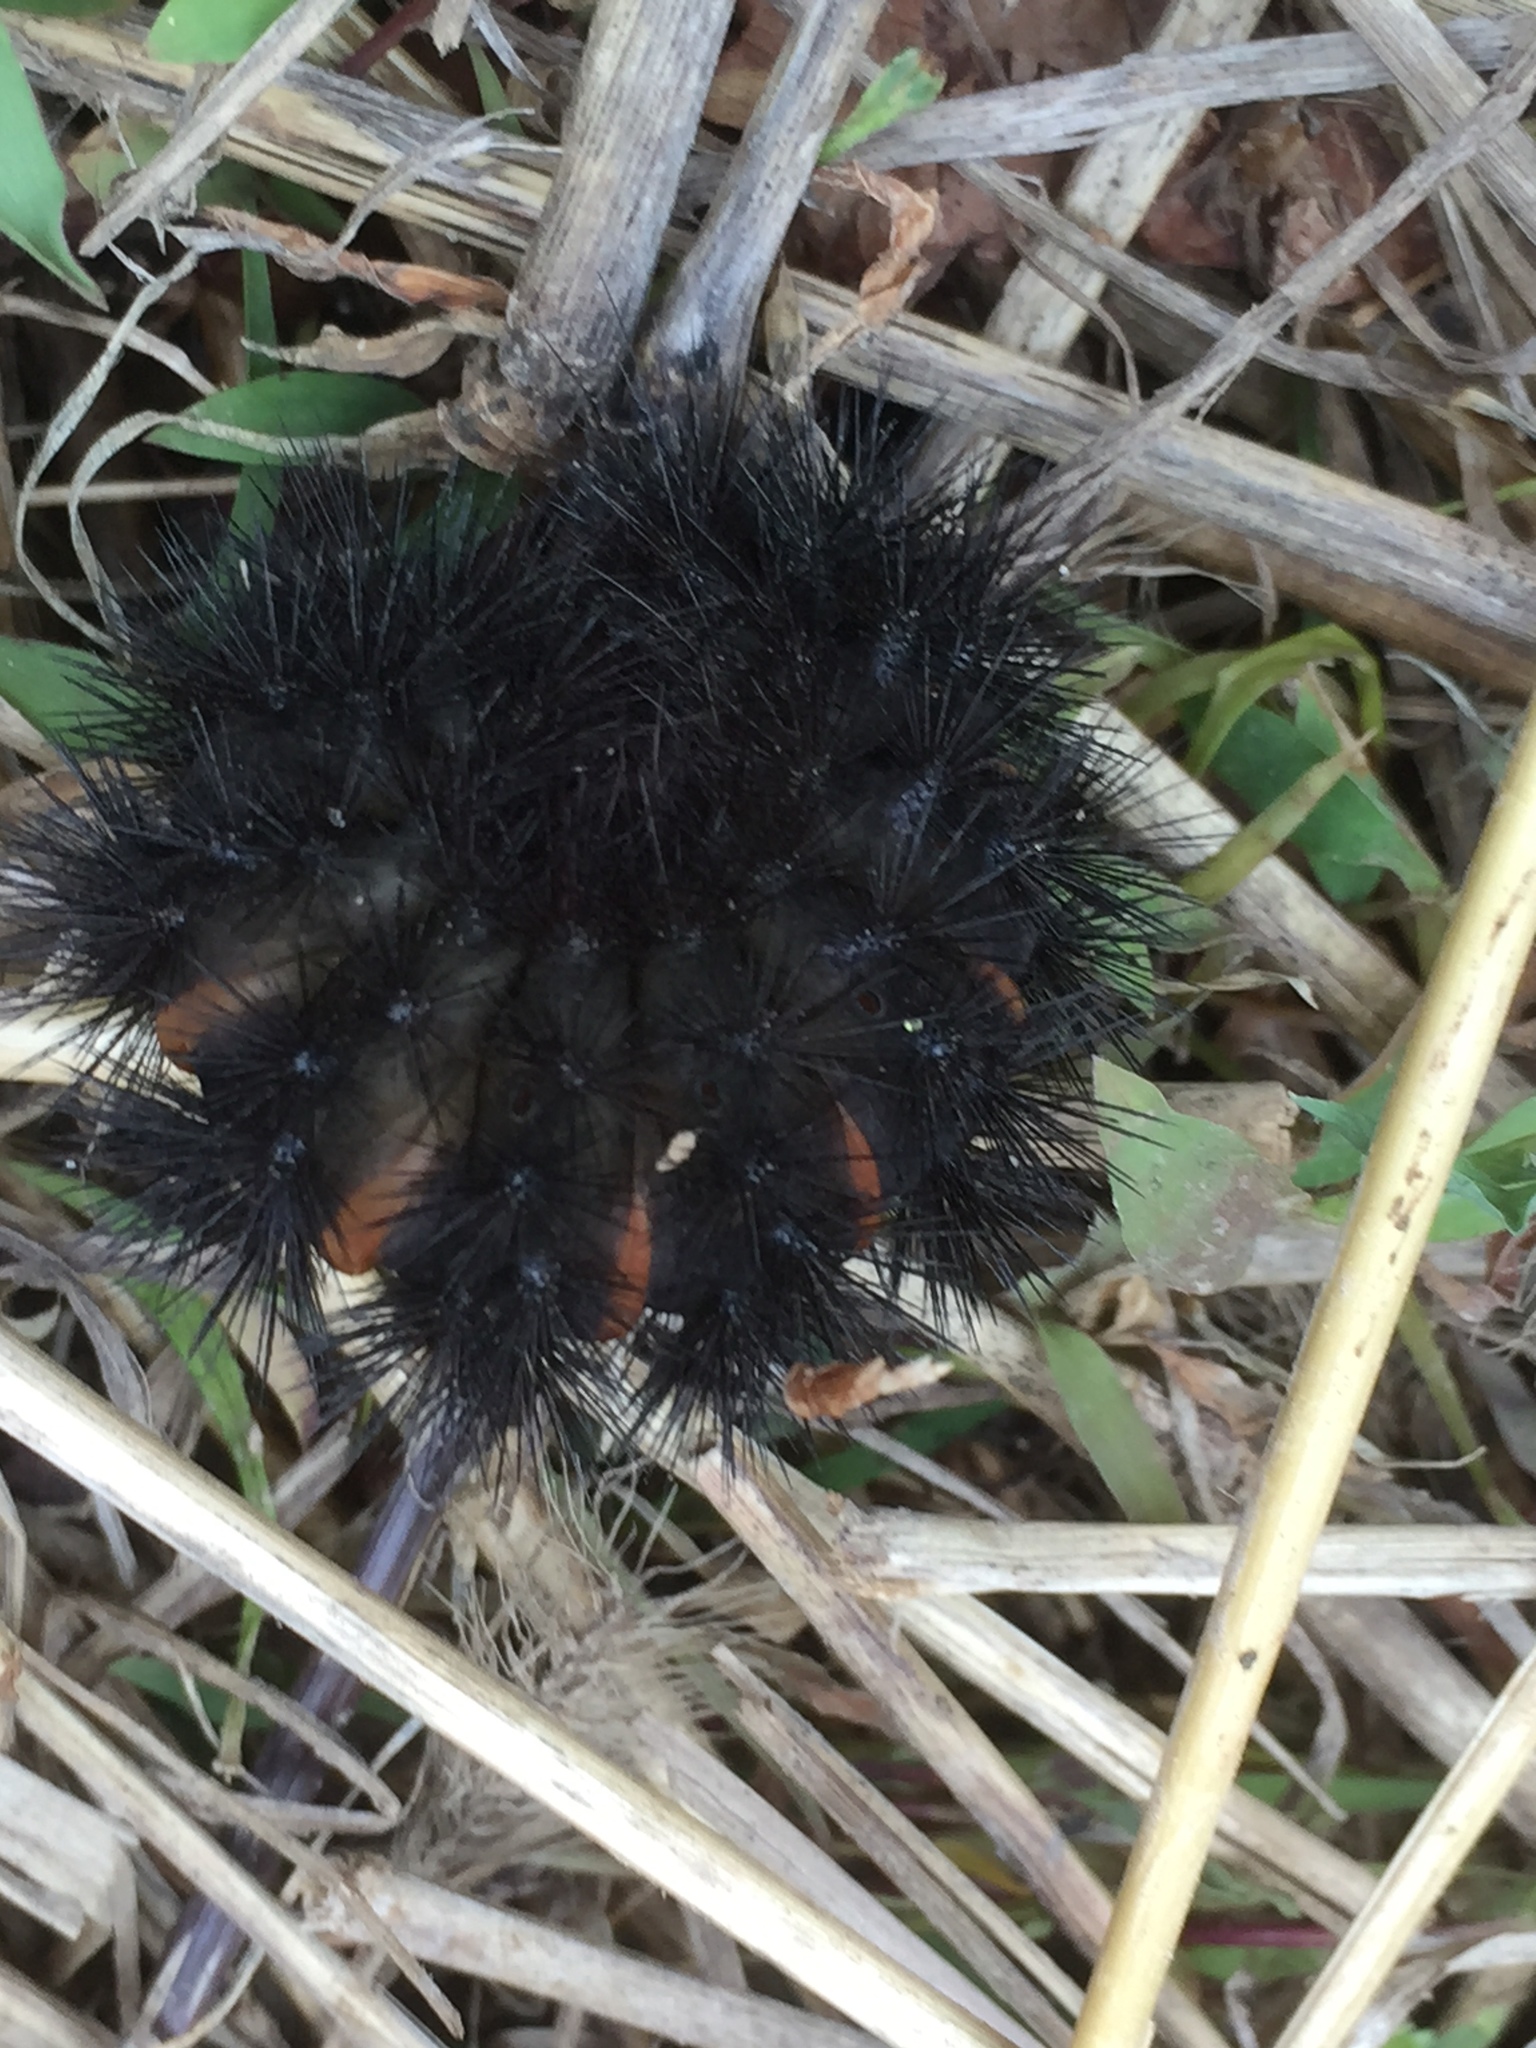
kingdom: Animalia
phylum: Arthropoda
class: Insecta
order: Lepidoptera
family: Erebidae
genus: Hypercompe
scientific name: Hypercompe scribonia
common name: Giant leopard moth
